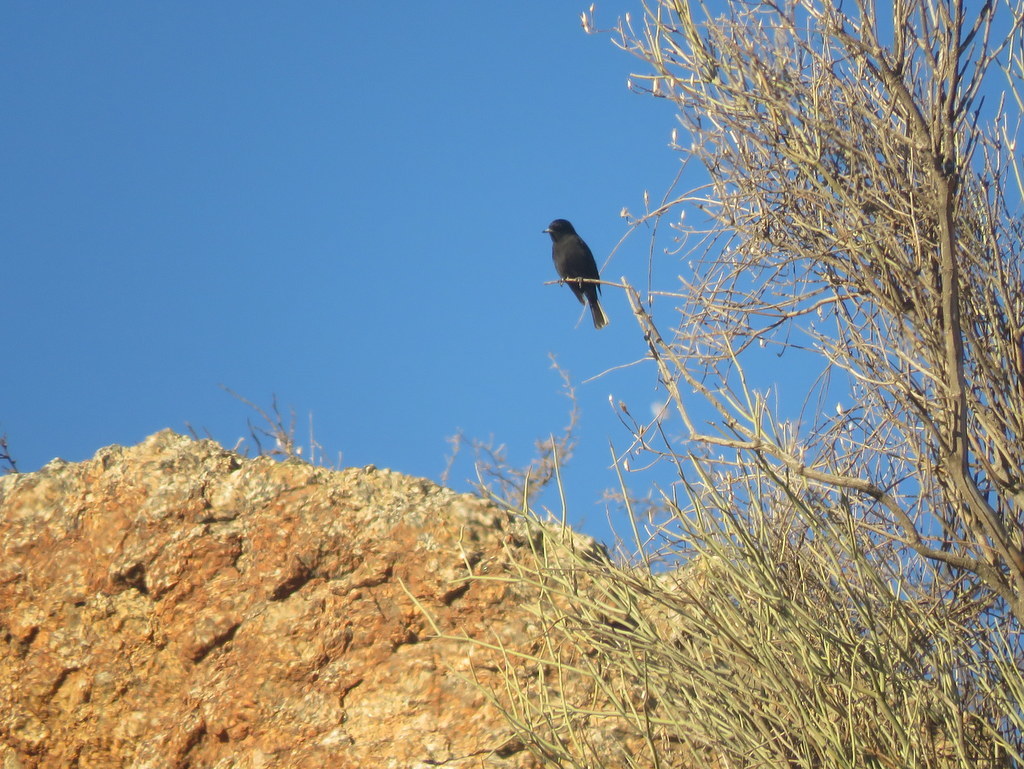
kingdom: Animalia
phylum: Chordata
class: Aves
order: Passeriformes
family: Tyrannidae
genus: Knipolegus
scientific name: Knipolegus aterrimus
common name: White-winged black tyrant
